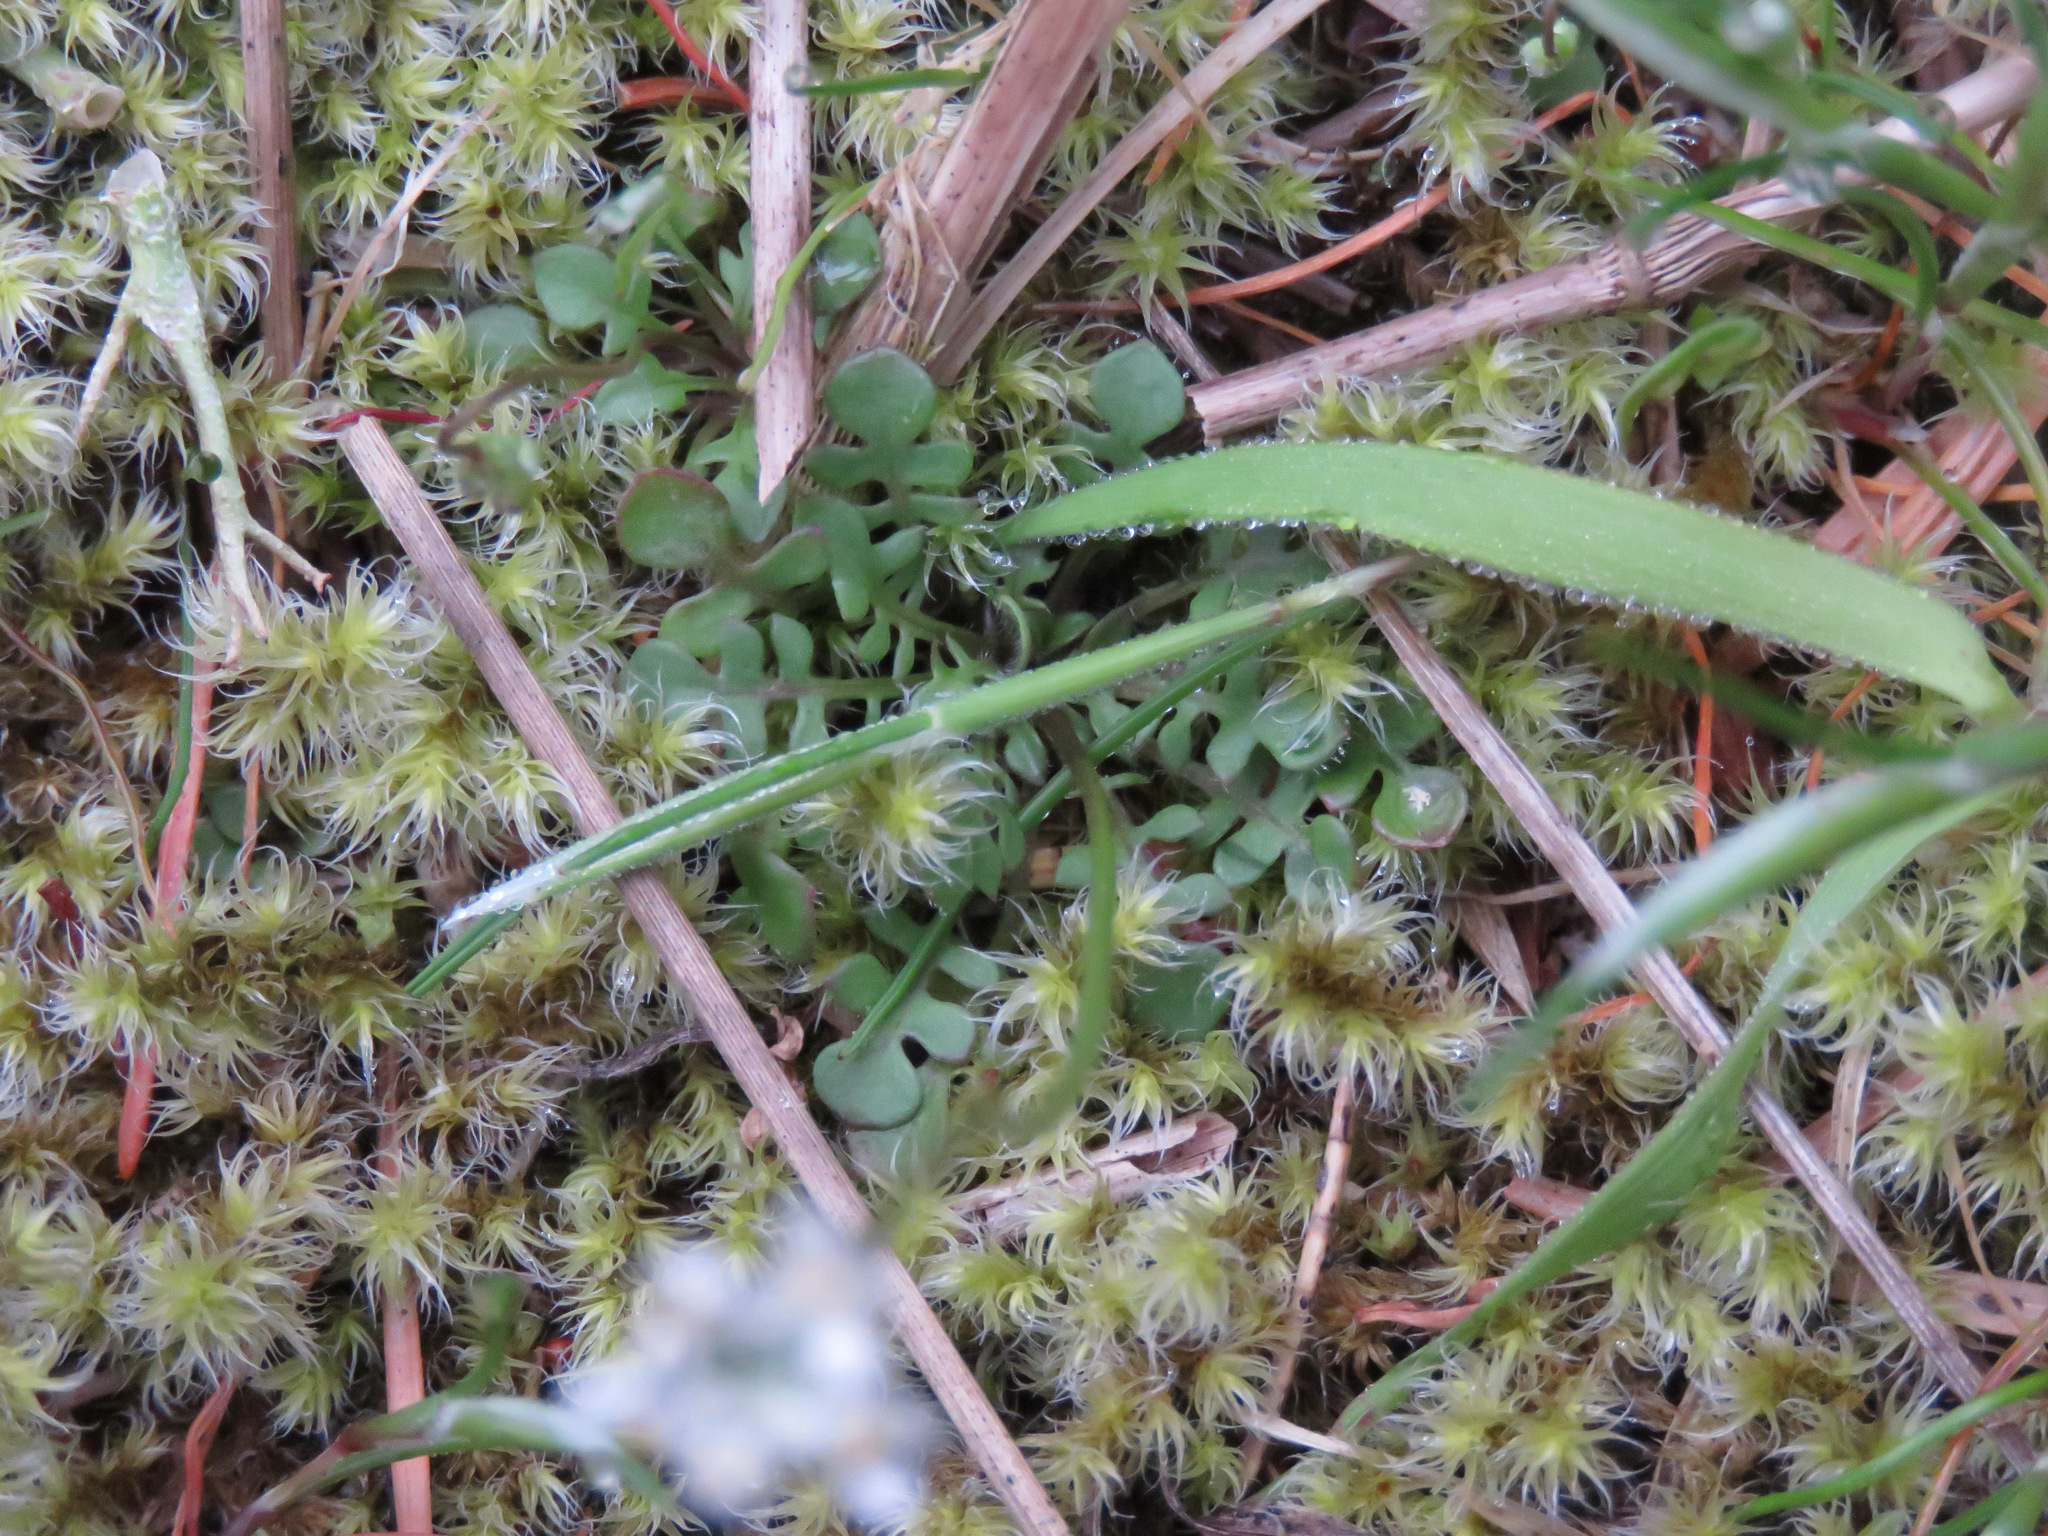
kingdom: Plantae
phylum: Tracheophyta
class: Magnoliopsida
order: Brassicales
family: Brassicaceae
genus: Teesdalia
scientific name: Teesdalia nudicaulis
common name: Shepherd's cress
